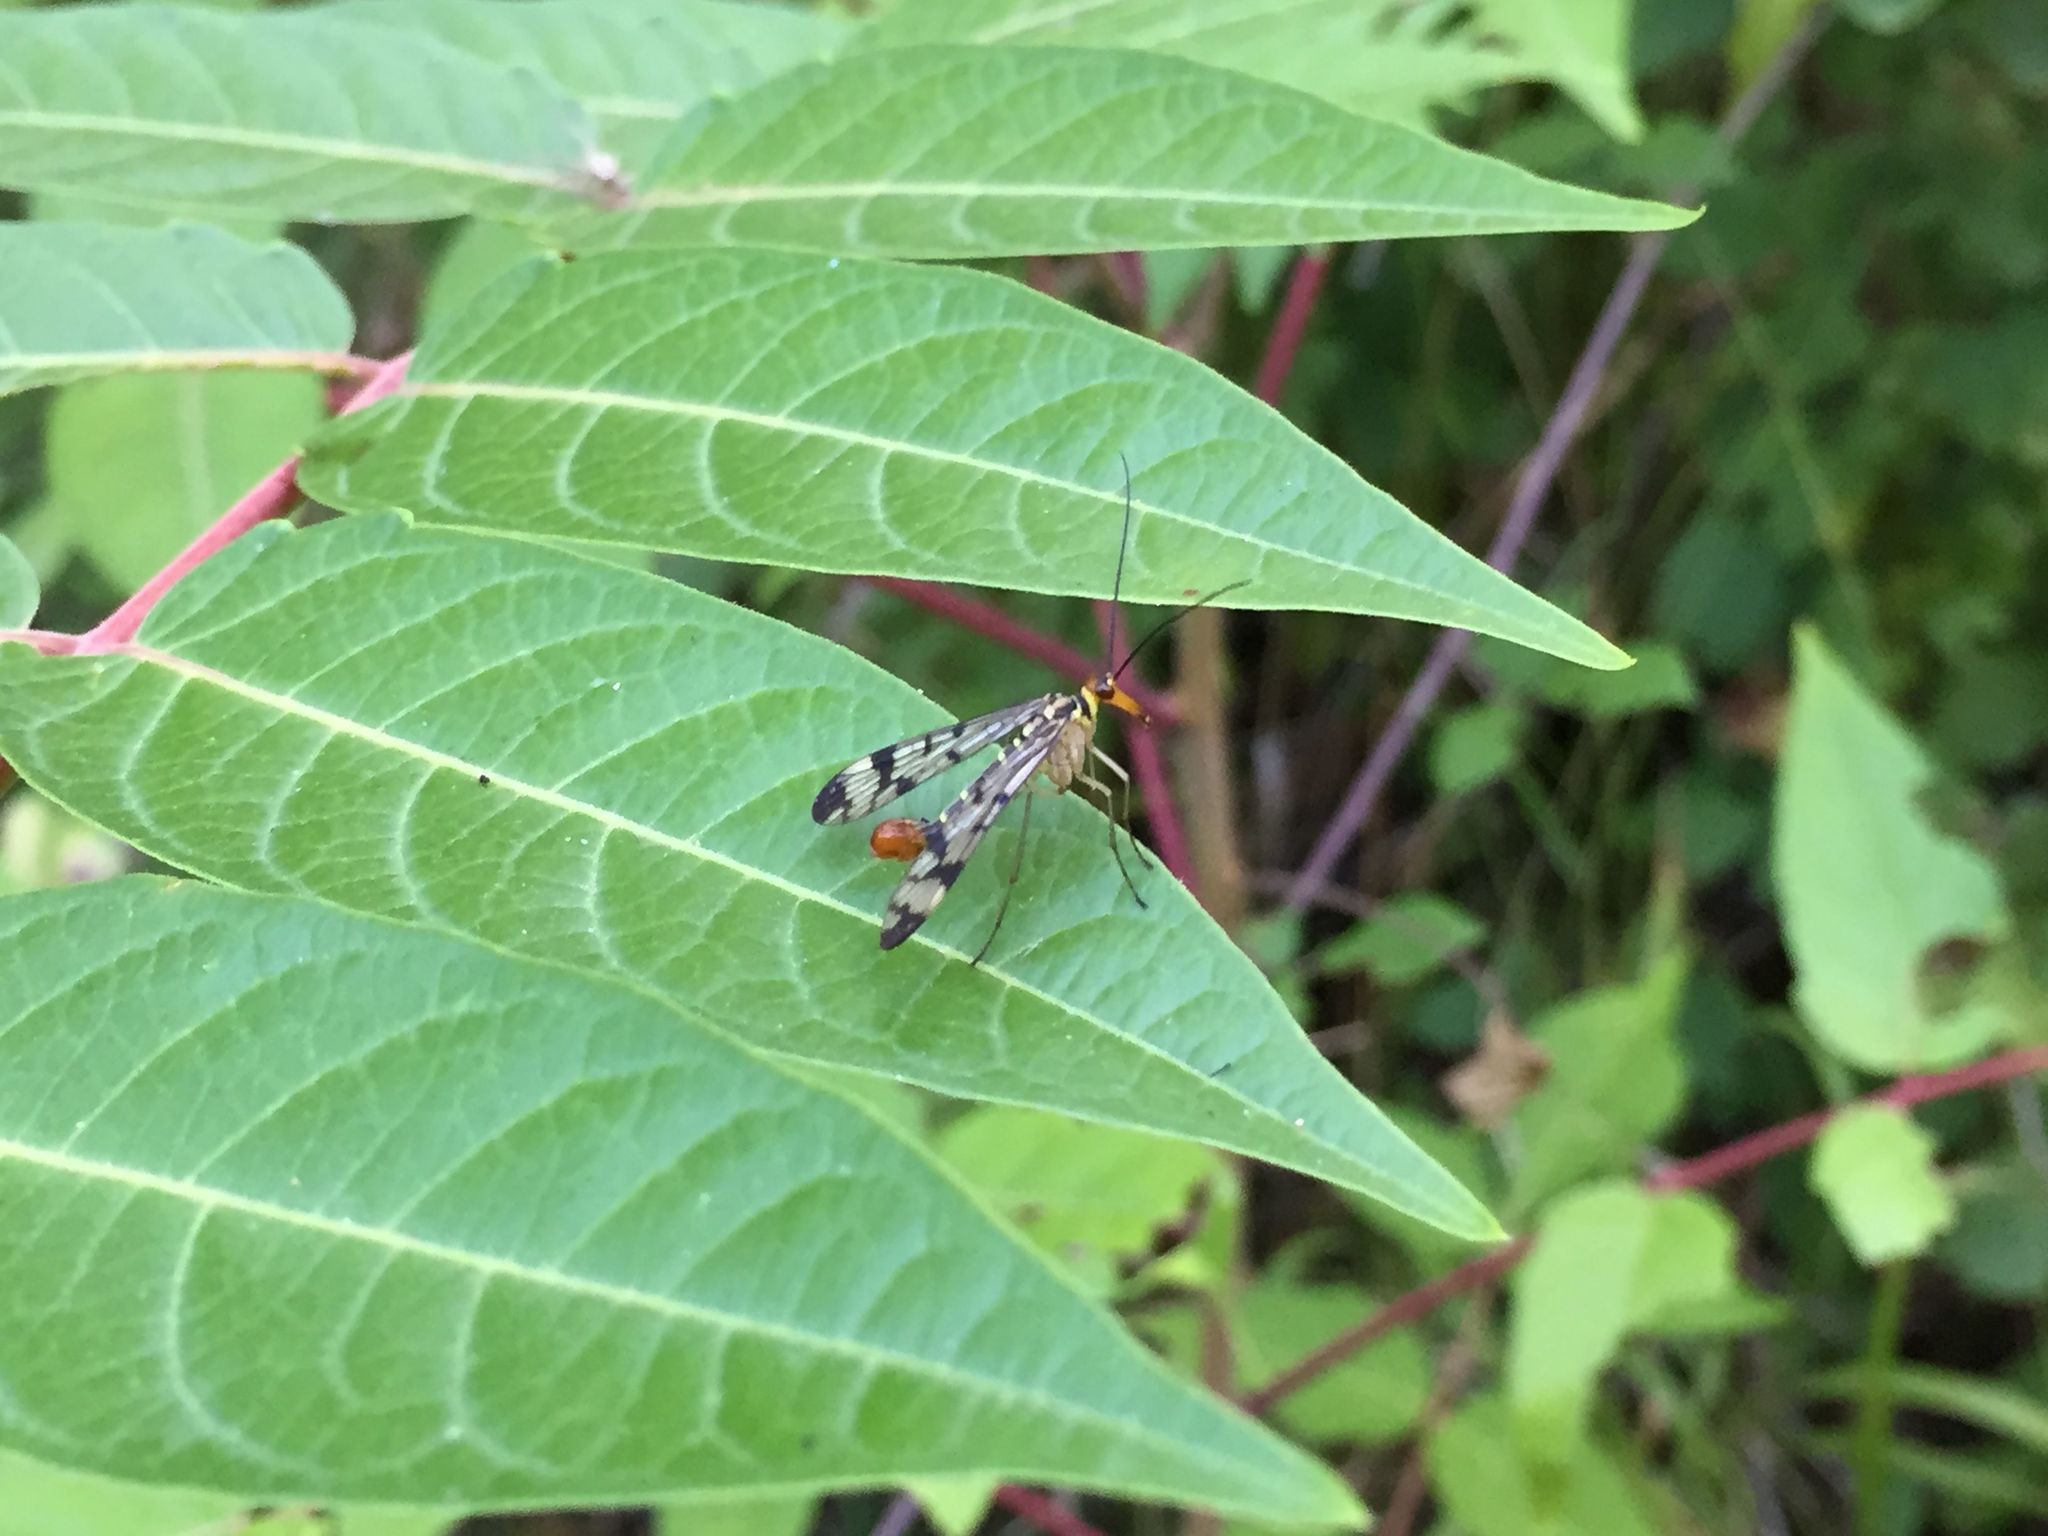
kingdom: Animalia
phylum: Arthropoda
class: Insecta
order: Mecoptera
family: Panorpidae
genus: Panorpa
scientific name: Panorpa
